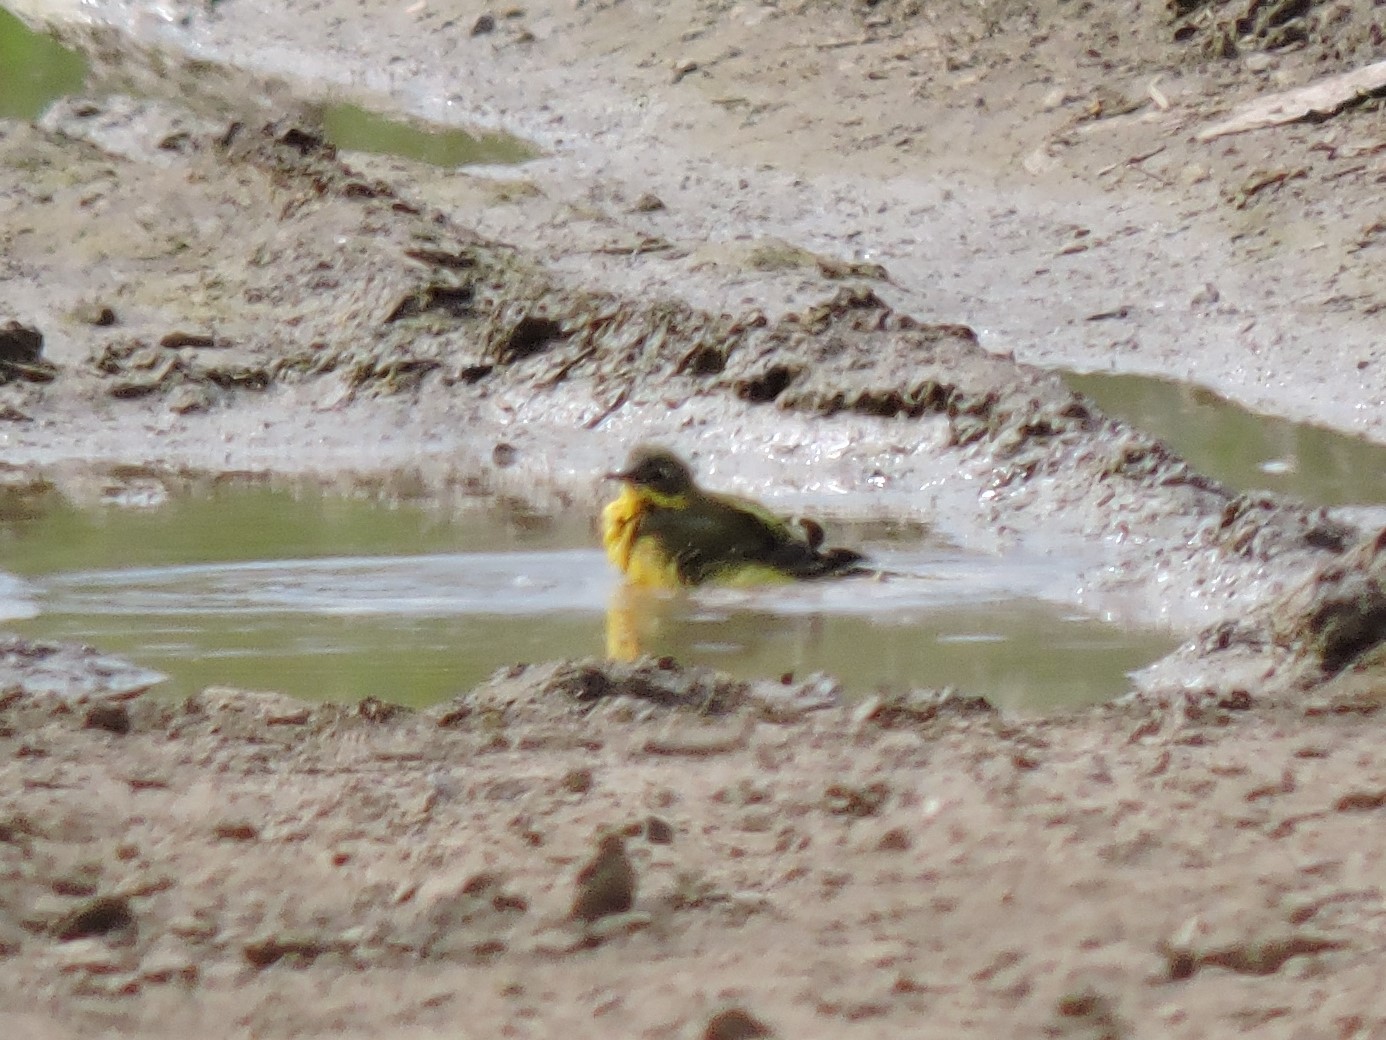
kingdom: Animalia
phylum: Chordata
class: Aves
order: Passeriformes
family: Motacillidae
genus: Motacilla
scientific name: Motacilla flava
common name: Western yellow wagtail
